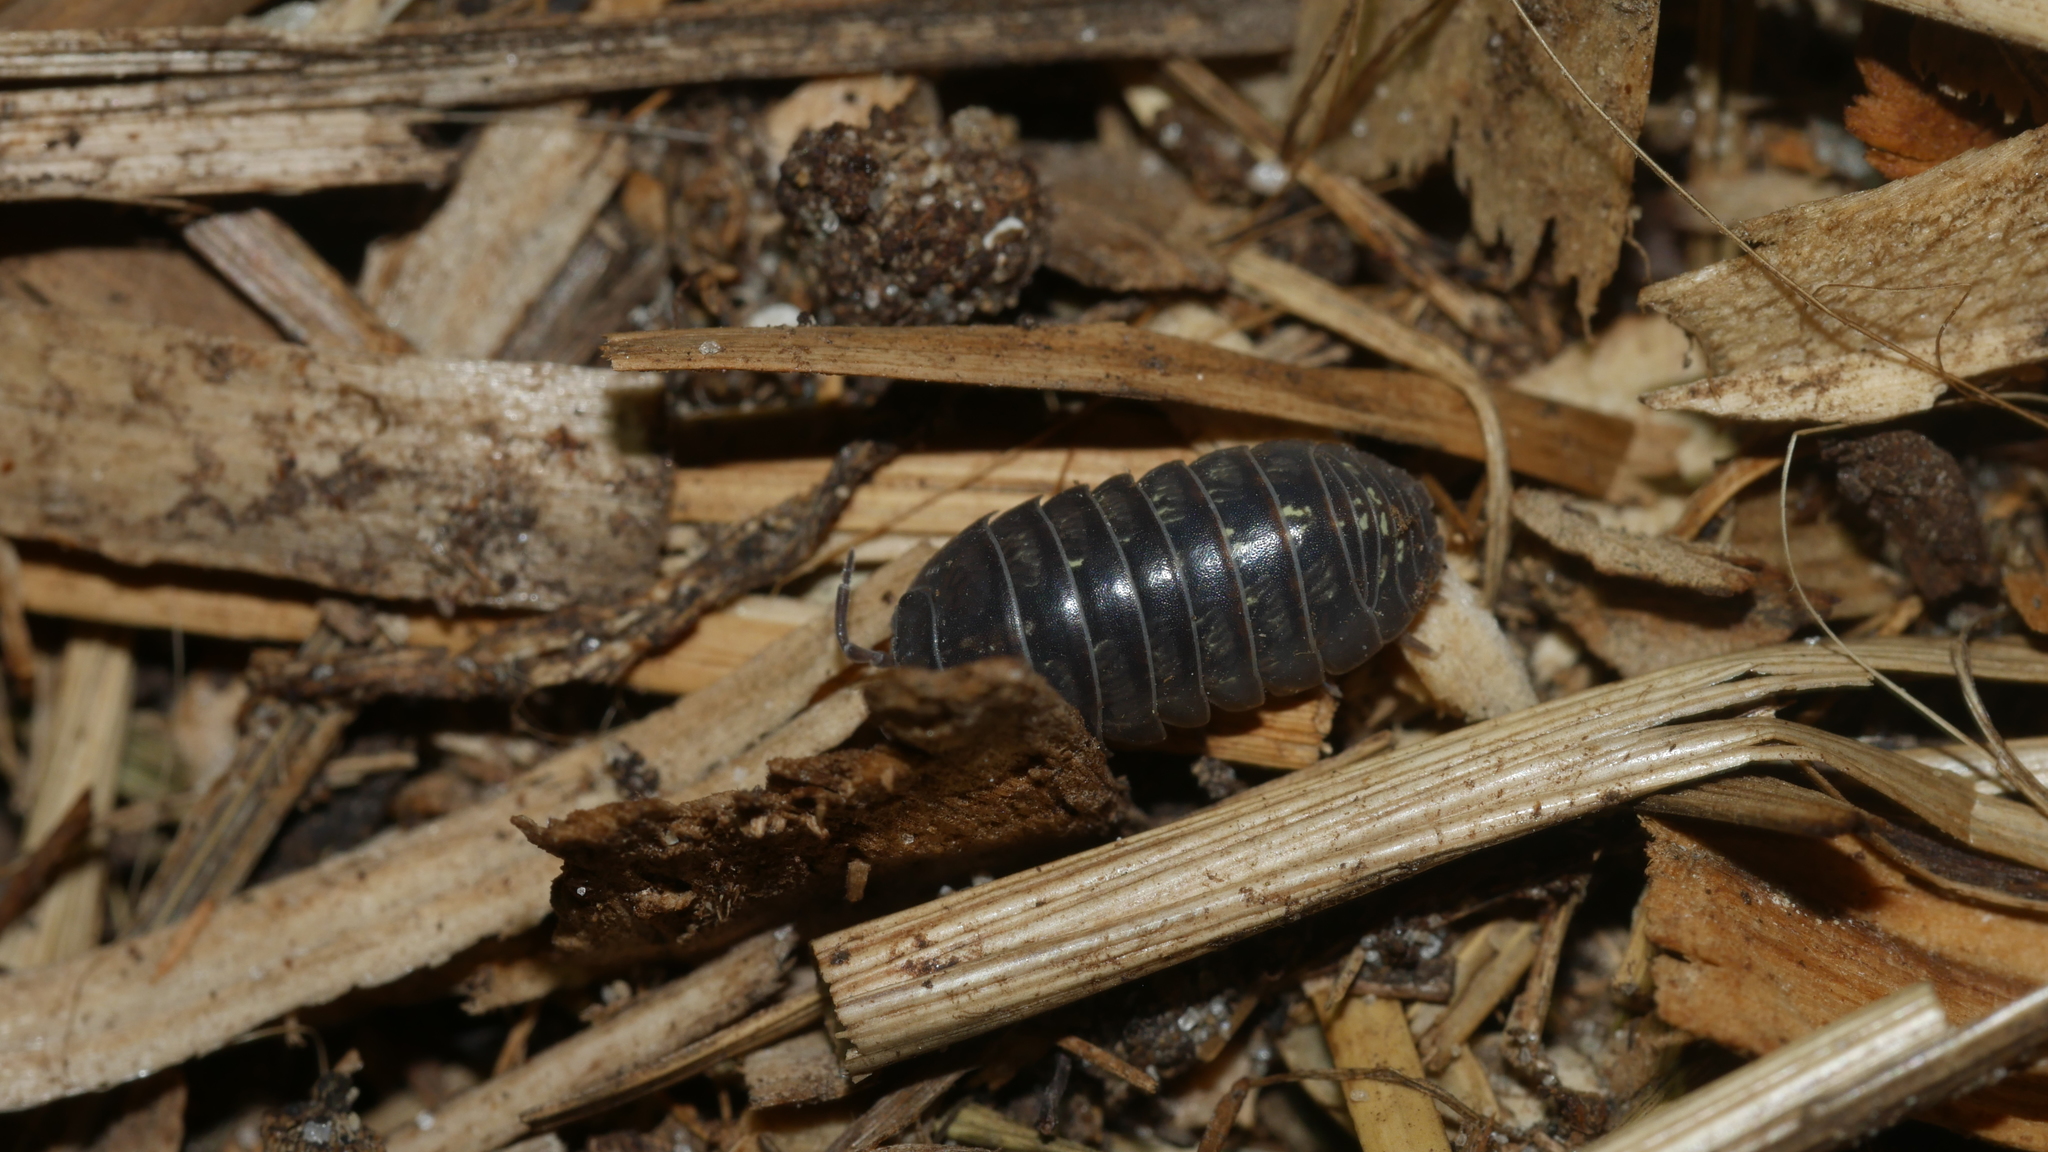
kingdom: Animalia
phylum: Arthropoda
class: Malacostraca
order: Isopoda
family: Armadillidiidae
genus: Armadillidium
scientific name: Armadillidium vulgare
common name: Common pill woodlouse
